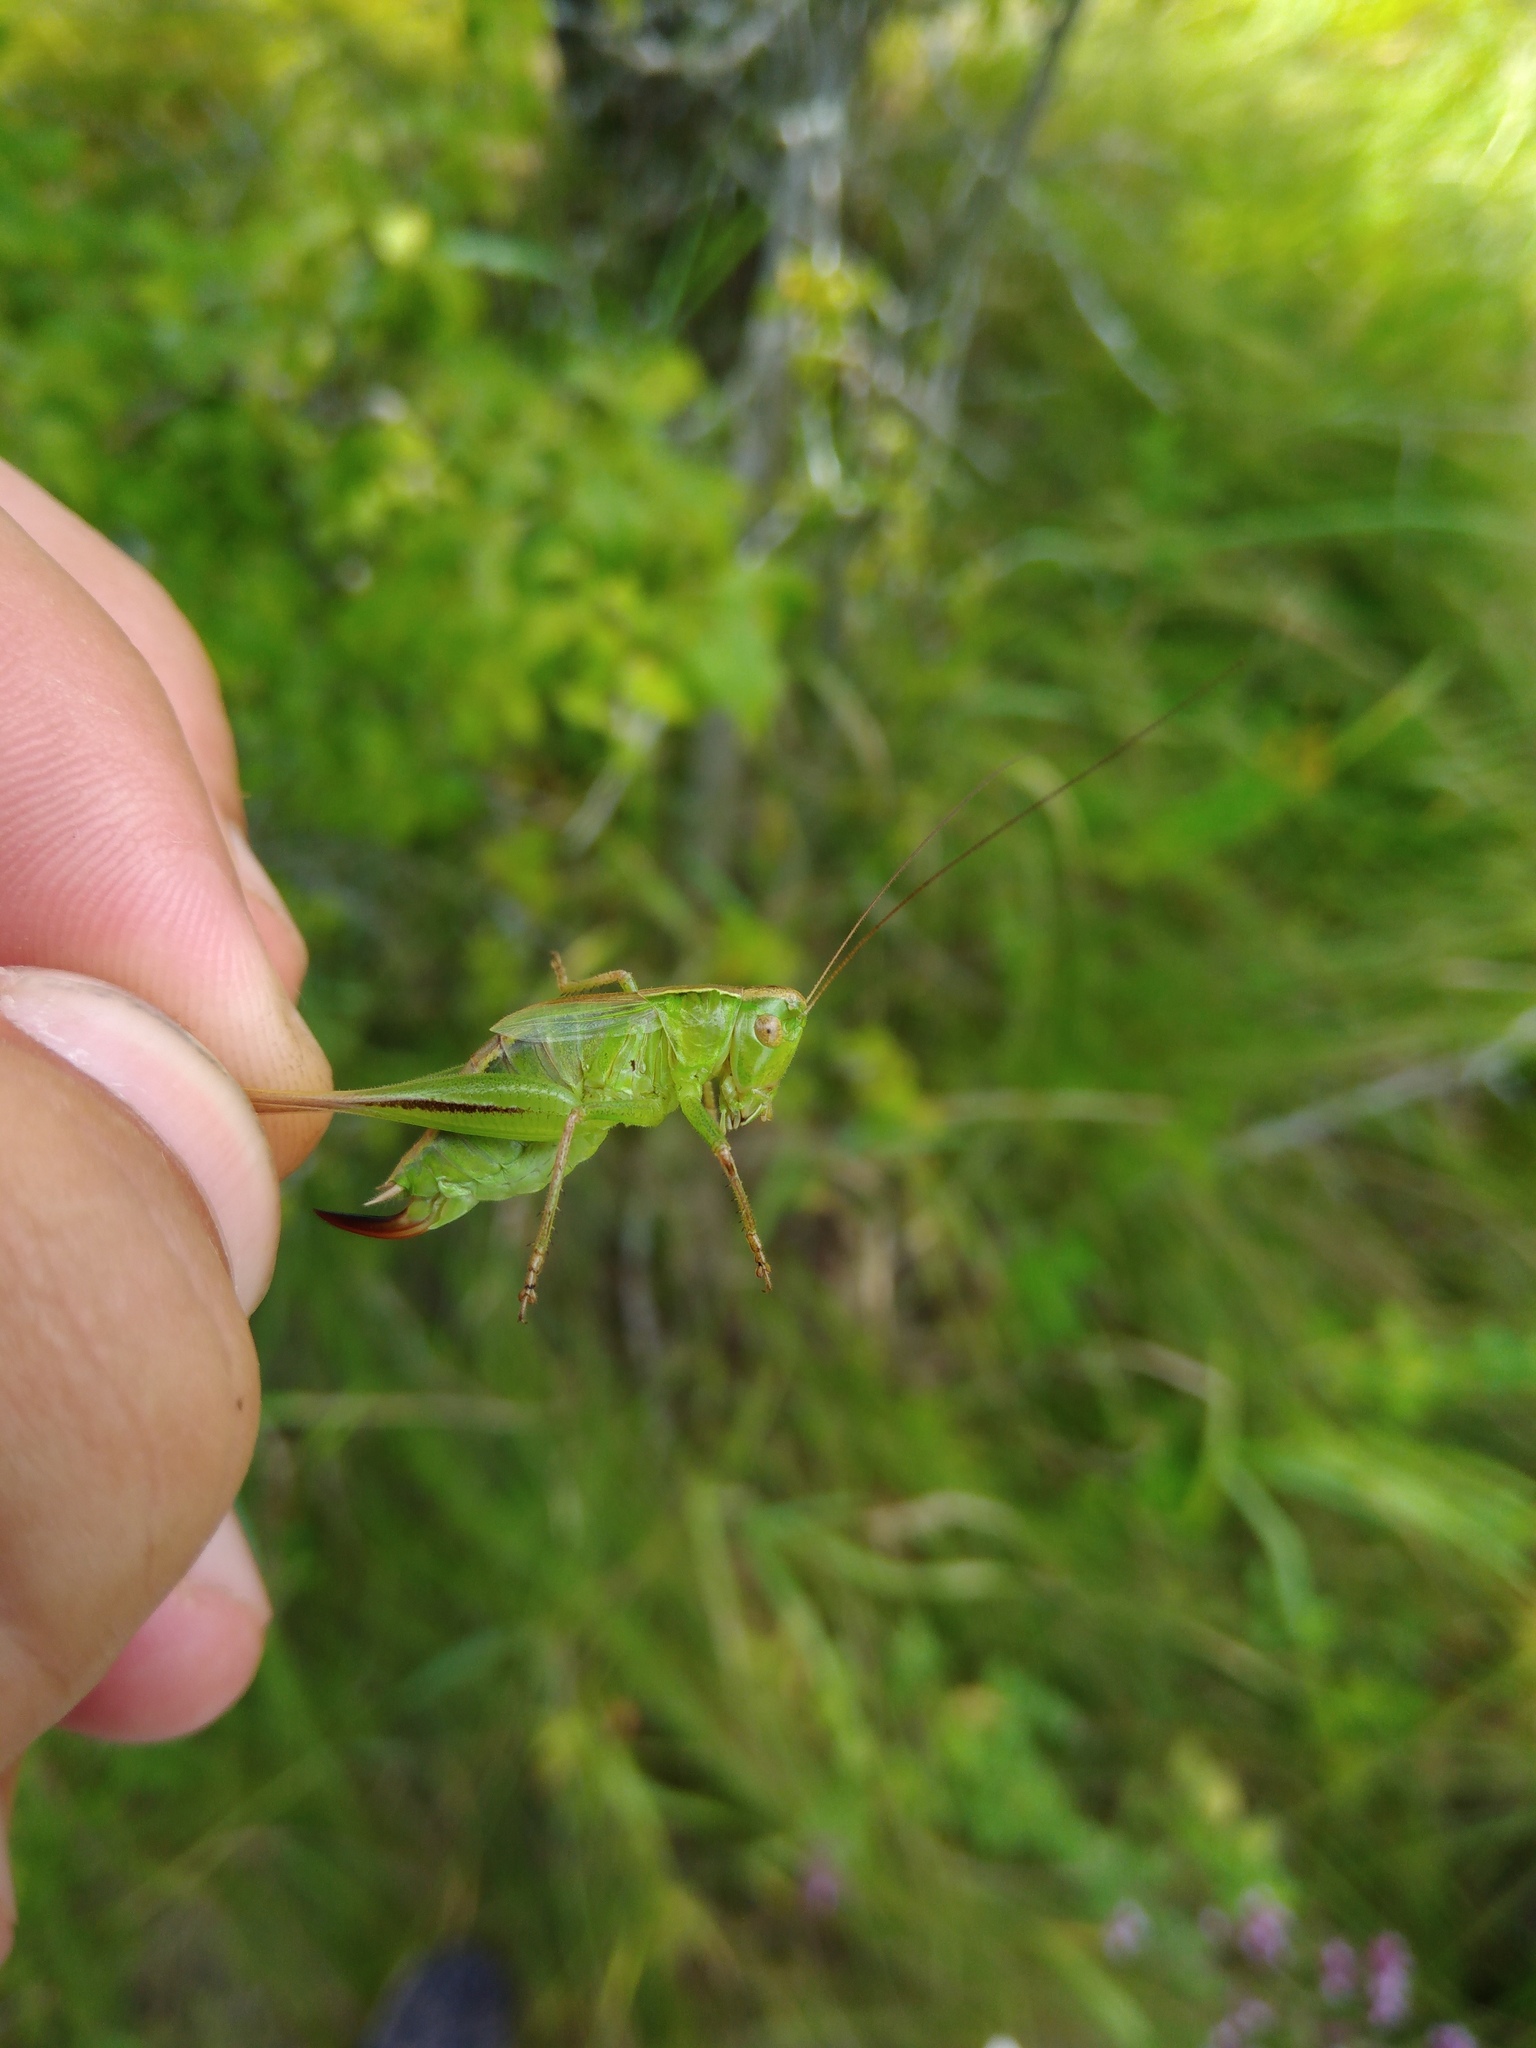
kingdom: Animalia
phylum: Arthropoda
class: Insecta
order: Orthoptera
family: Tettigoniidae
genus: Bicolorana
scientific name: Bicolorana bicolor
